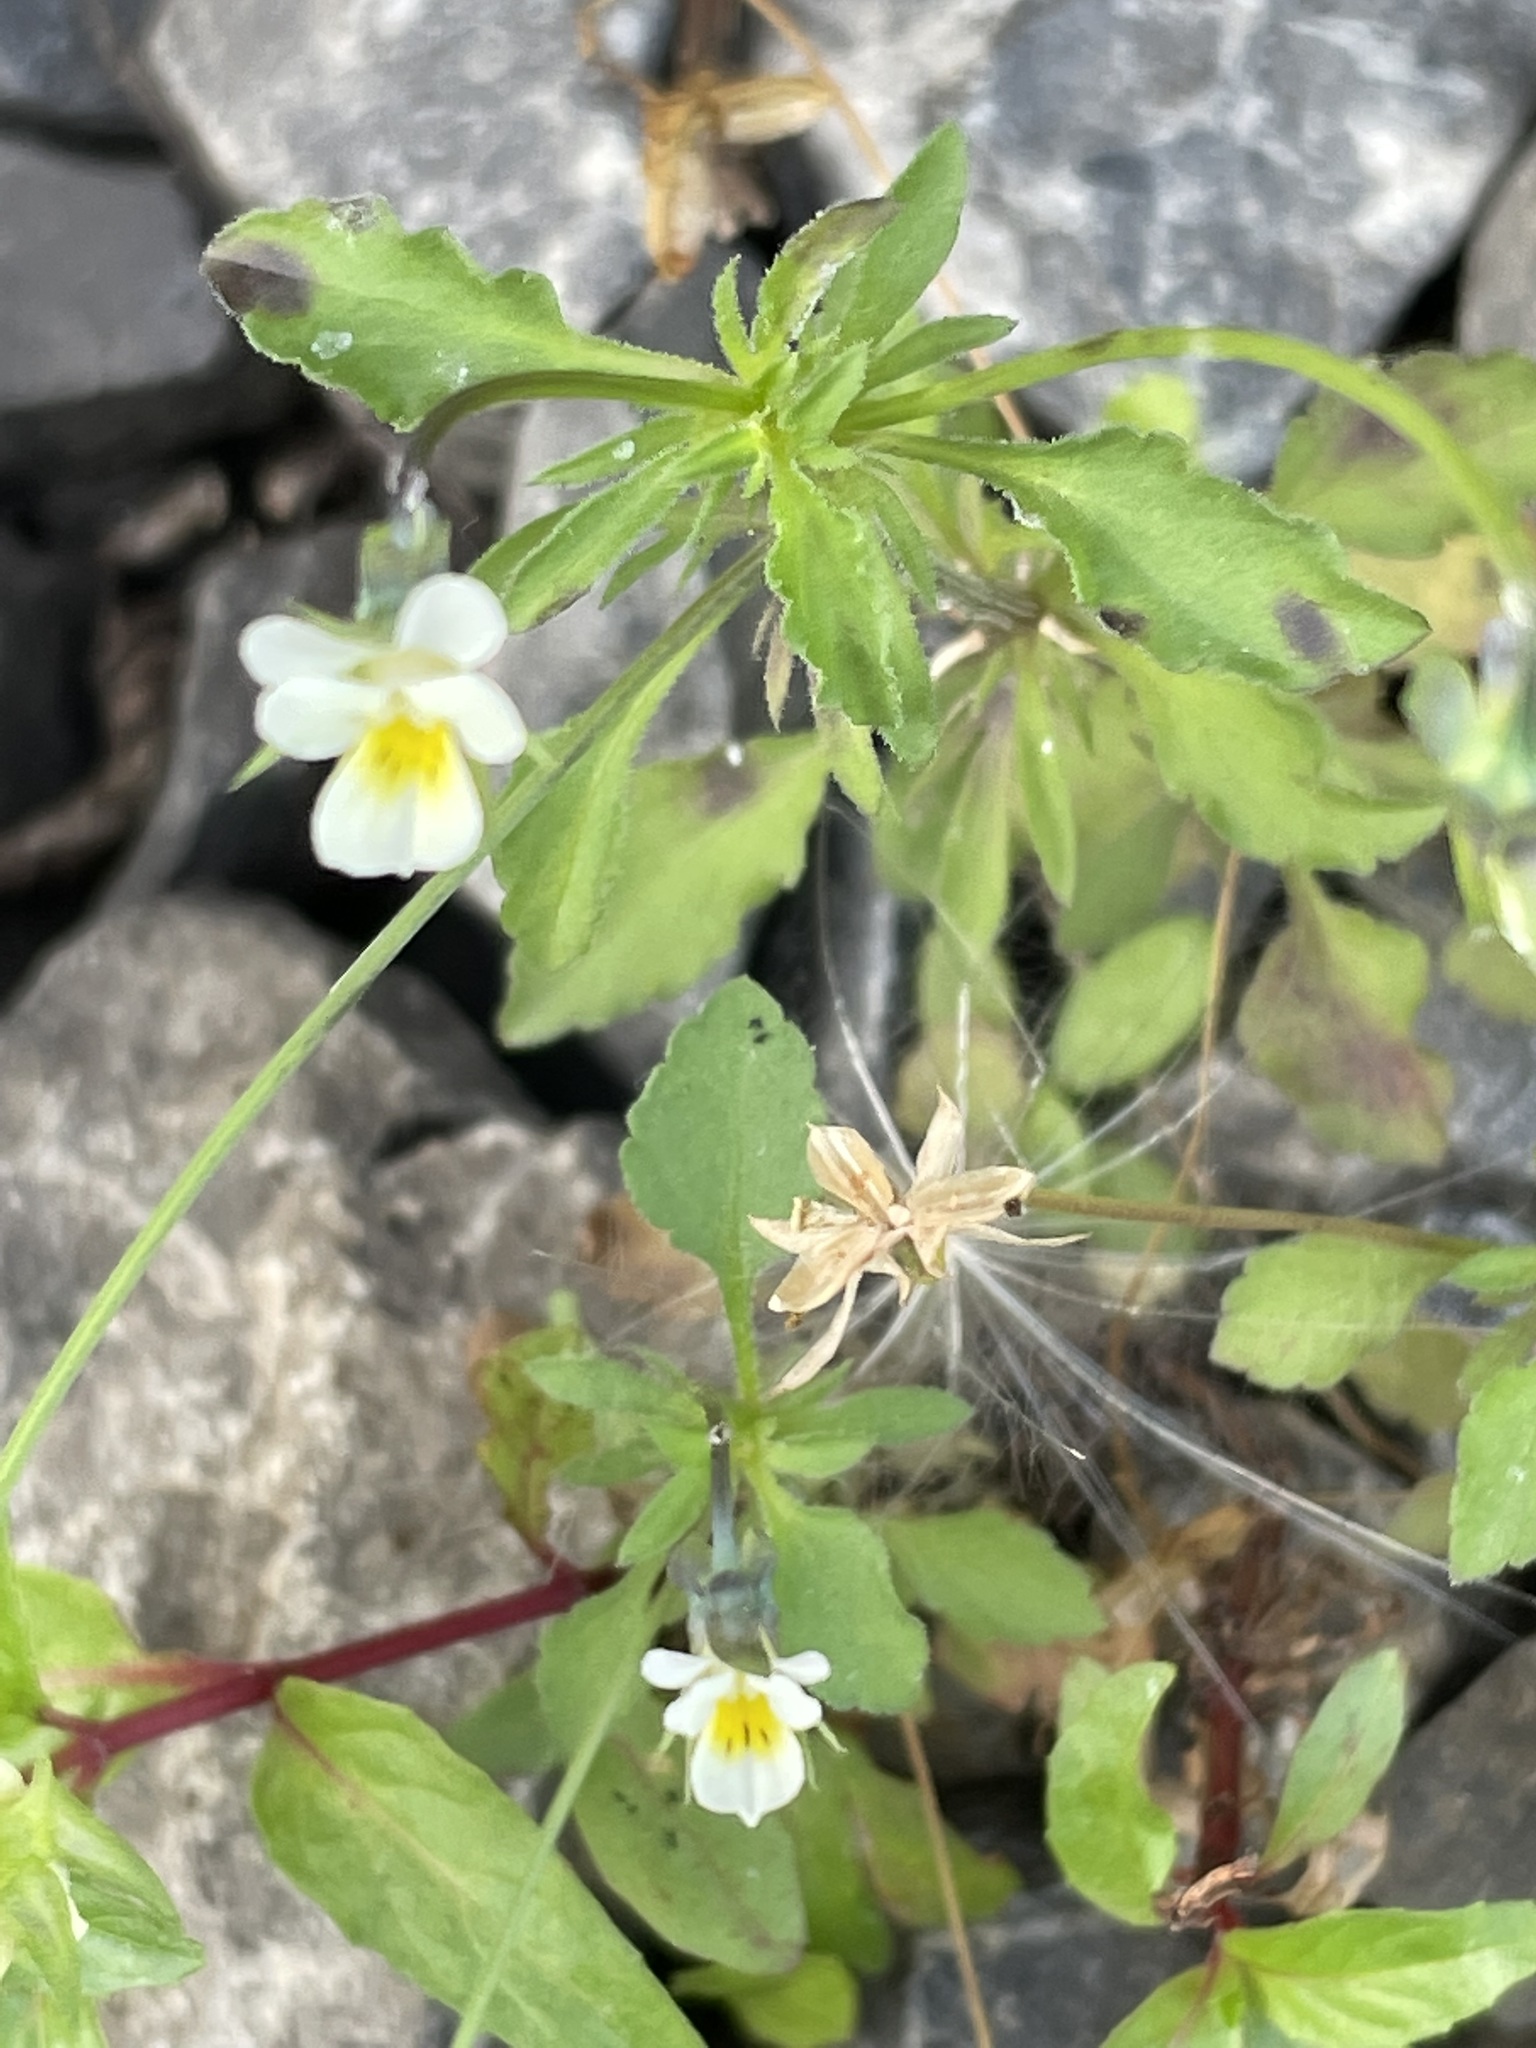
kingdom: Plantae
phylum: Tracheophyta
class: Magnoliopsida
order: Malpighiales
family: Violaceae
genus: Viola
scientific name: Viola arvensis
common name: Field pansy
